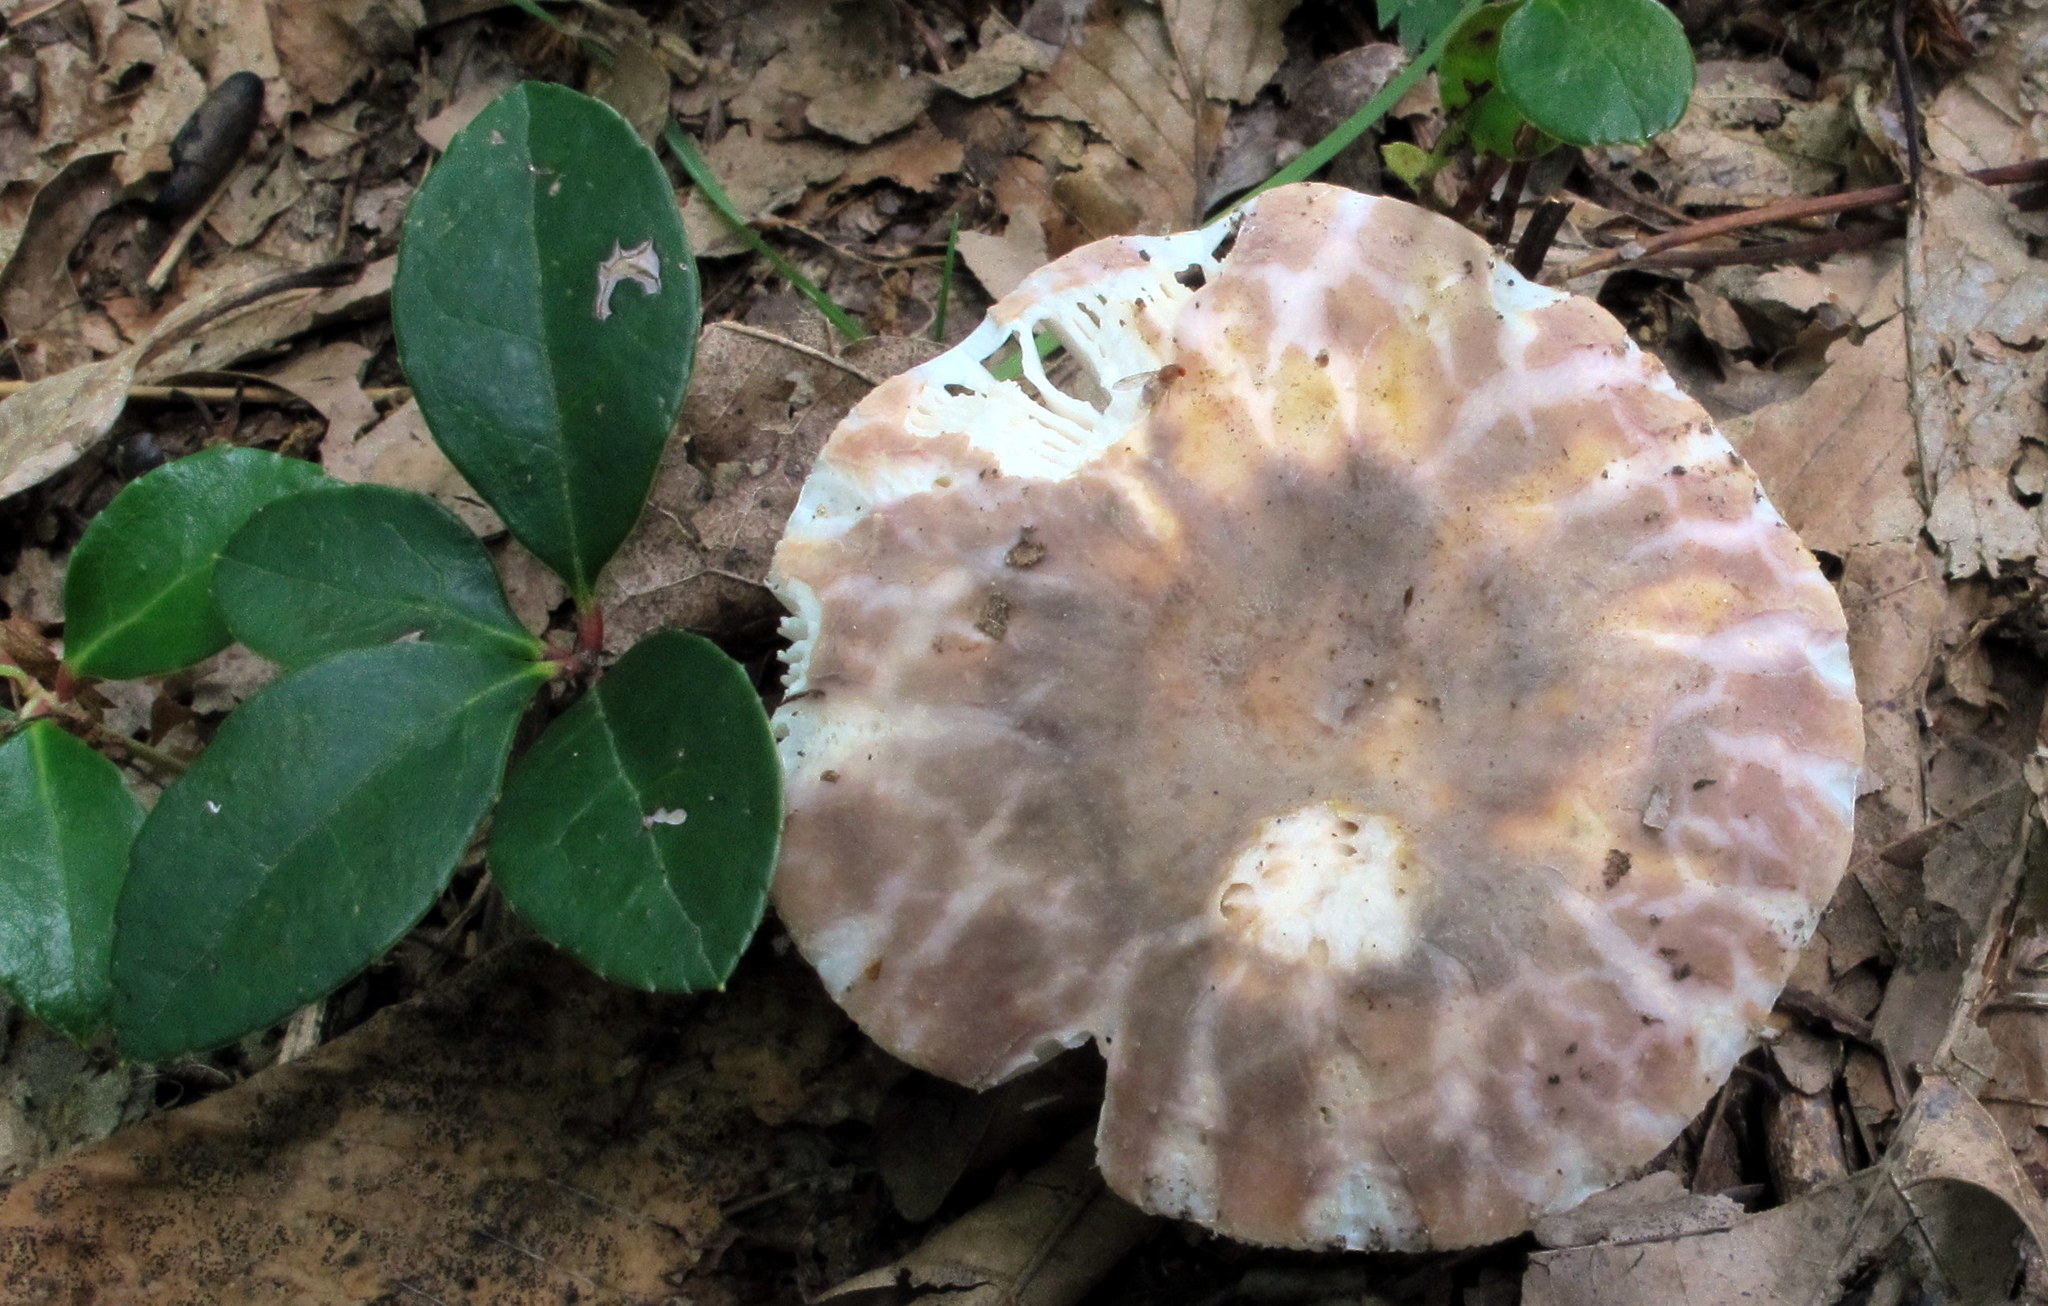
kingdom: Fungi
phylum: Basidiomycota
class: Agaricomycetes
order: Russulales
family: Russulaceae
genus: Russula
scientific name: Russula crustosa
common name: Green quilt russula
